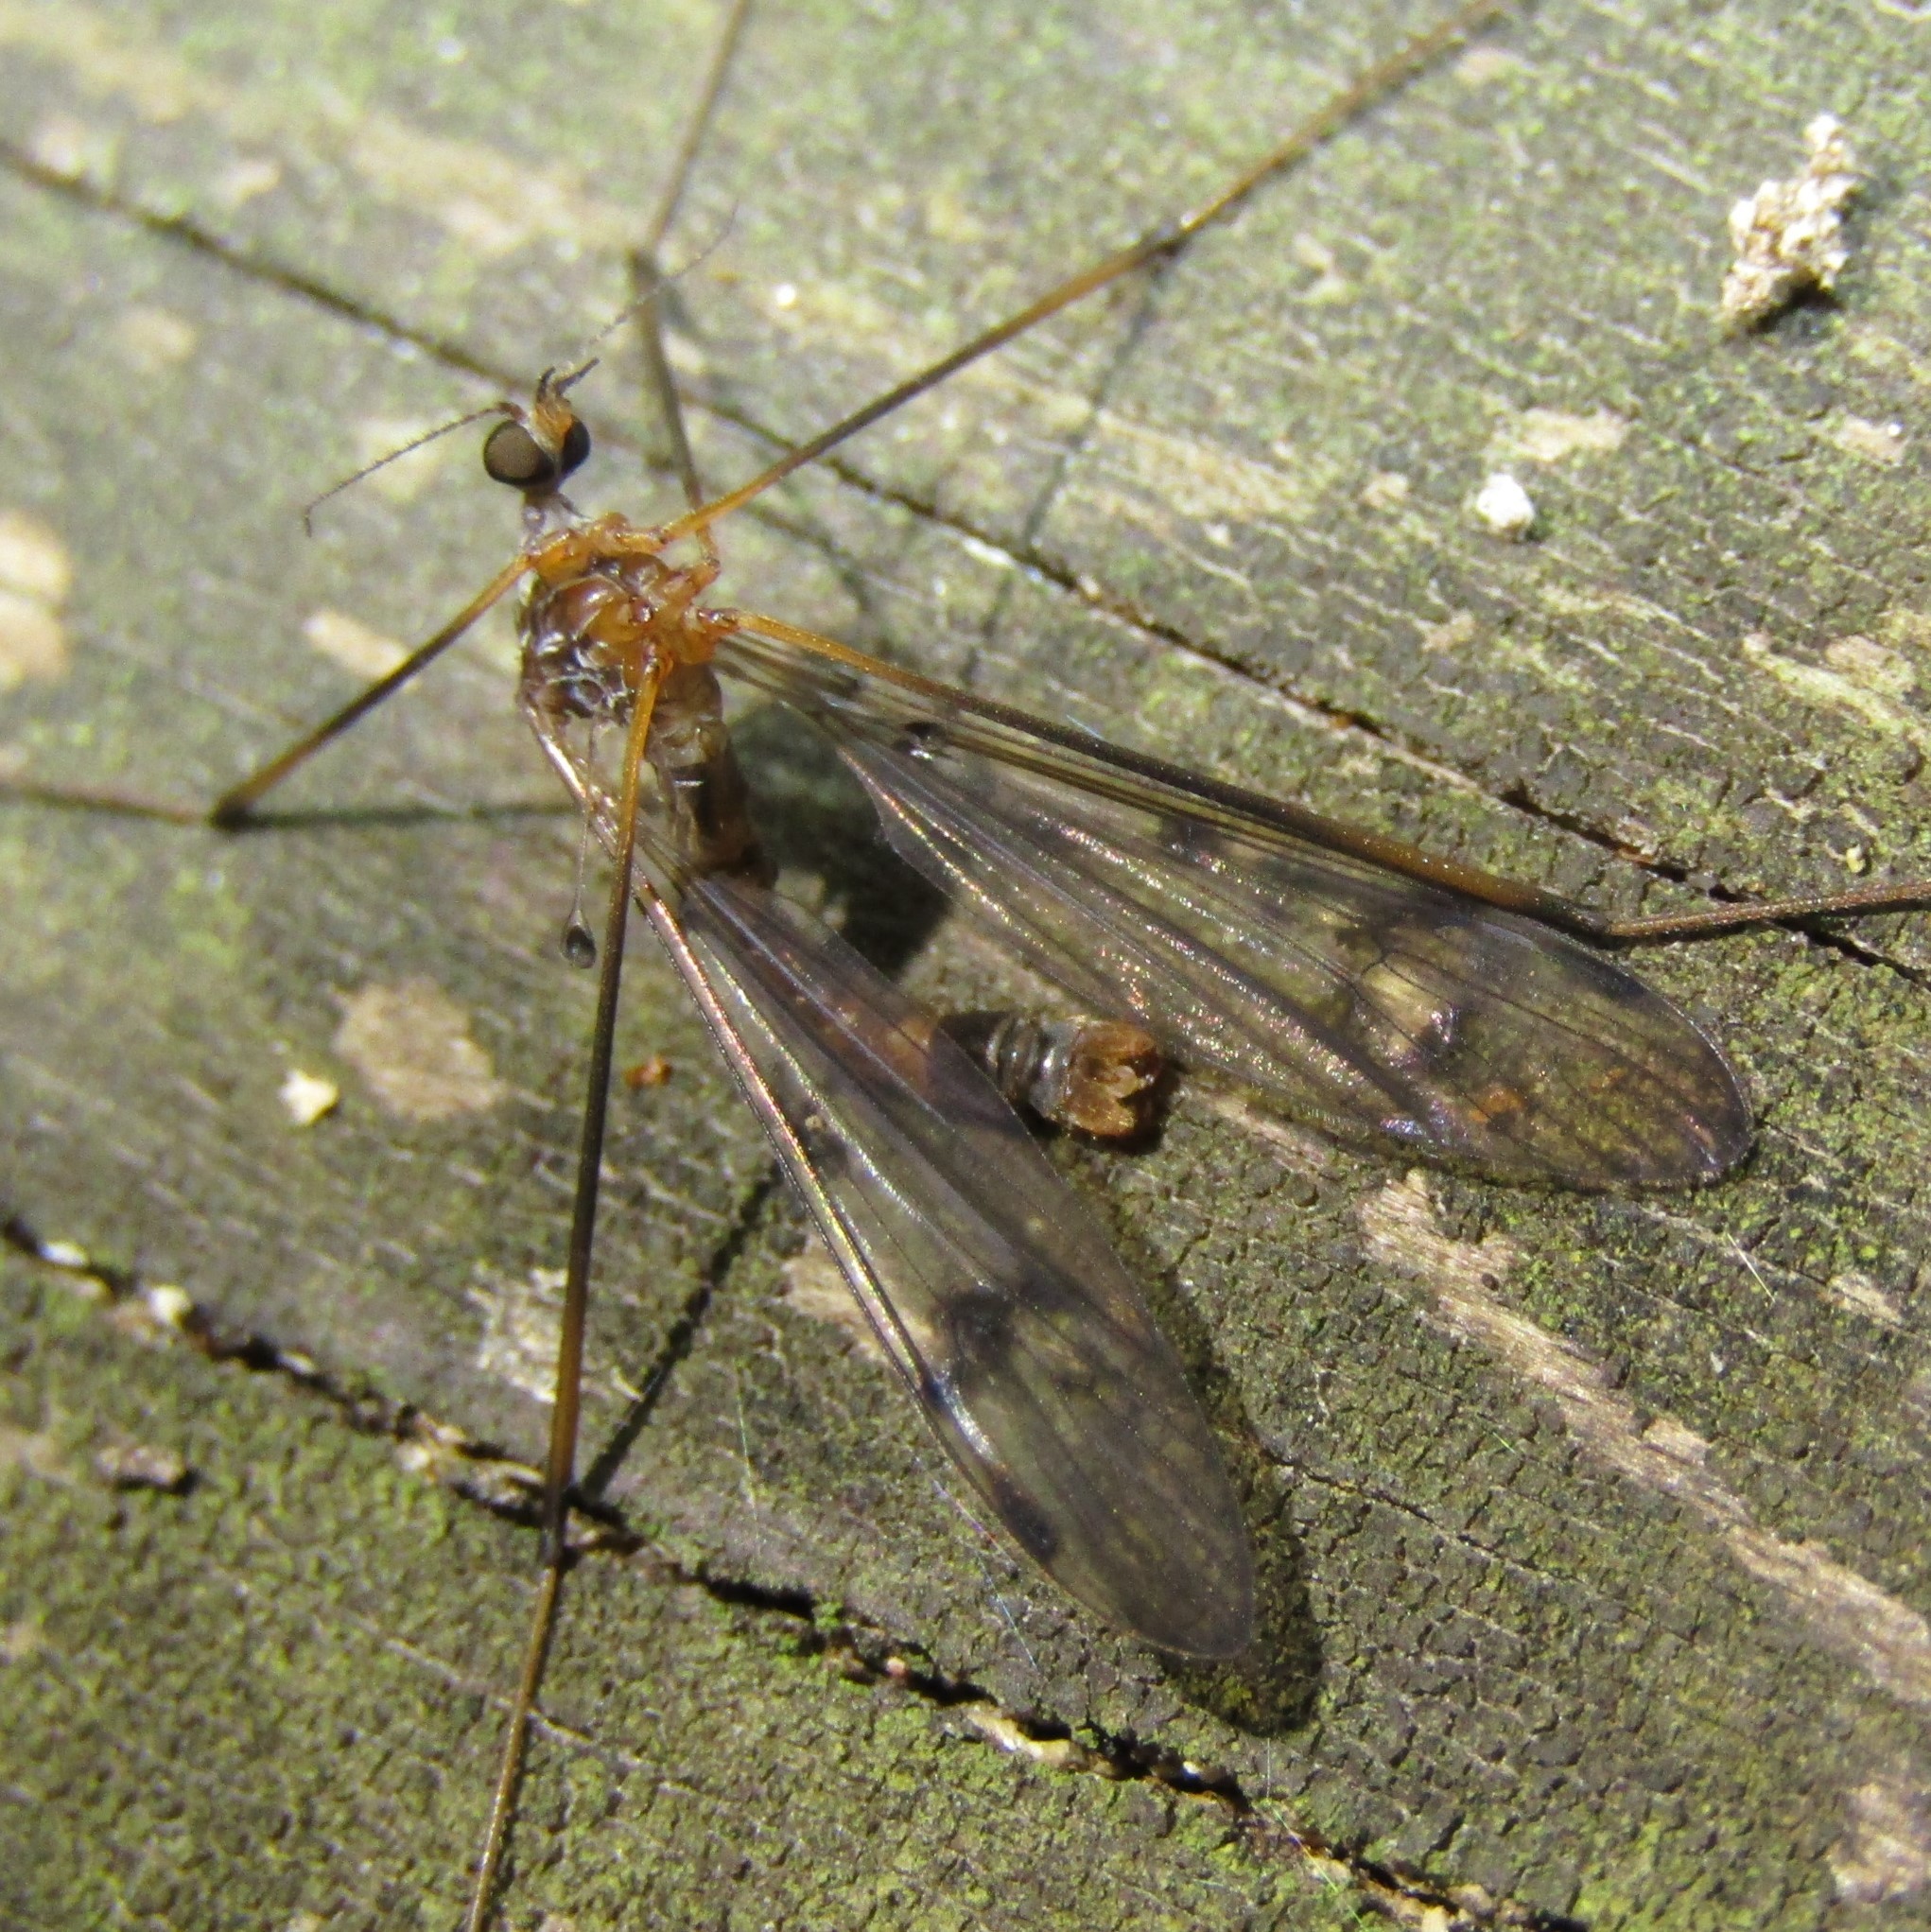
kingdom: Animalia
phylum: Arthropoda
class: Insecta
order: Diptera
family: Limoniidae
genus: Limnophilella
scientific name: Limnophilella serotina
